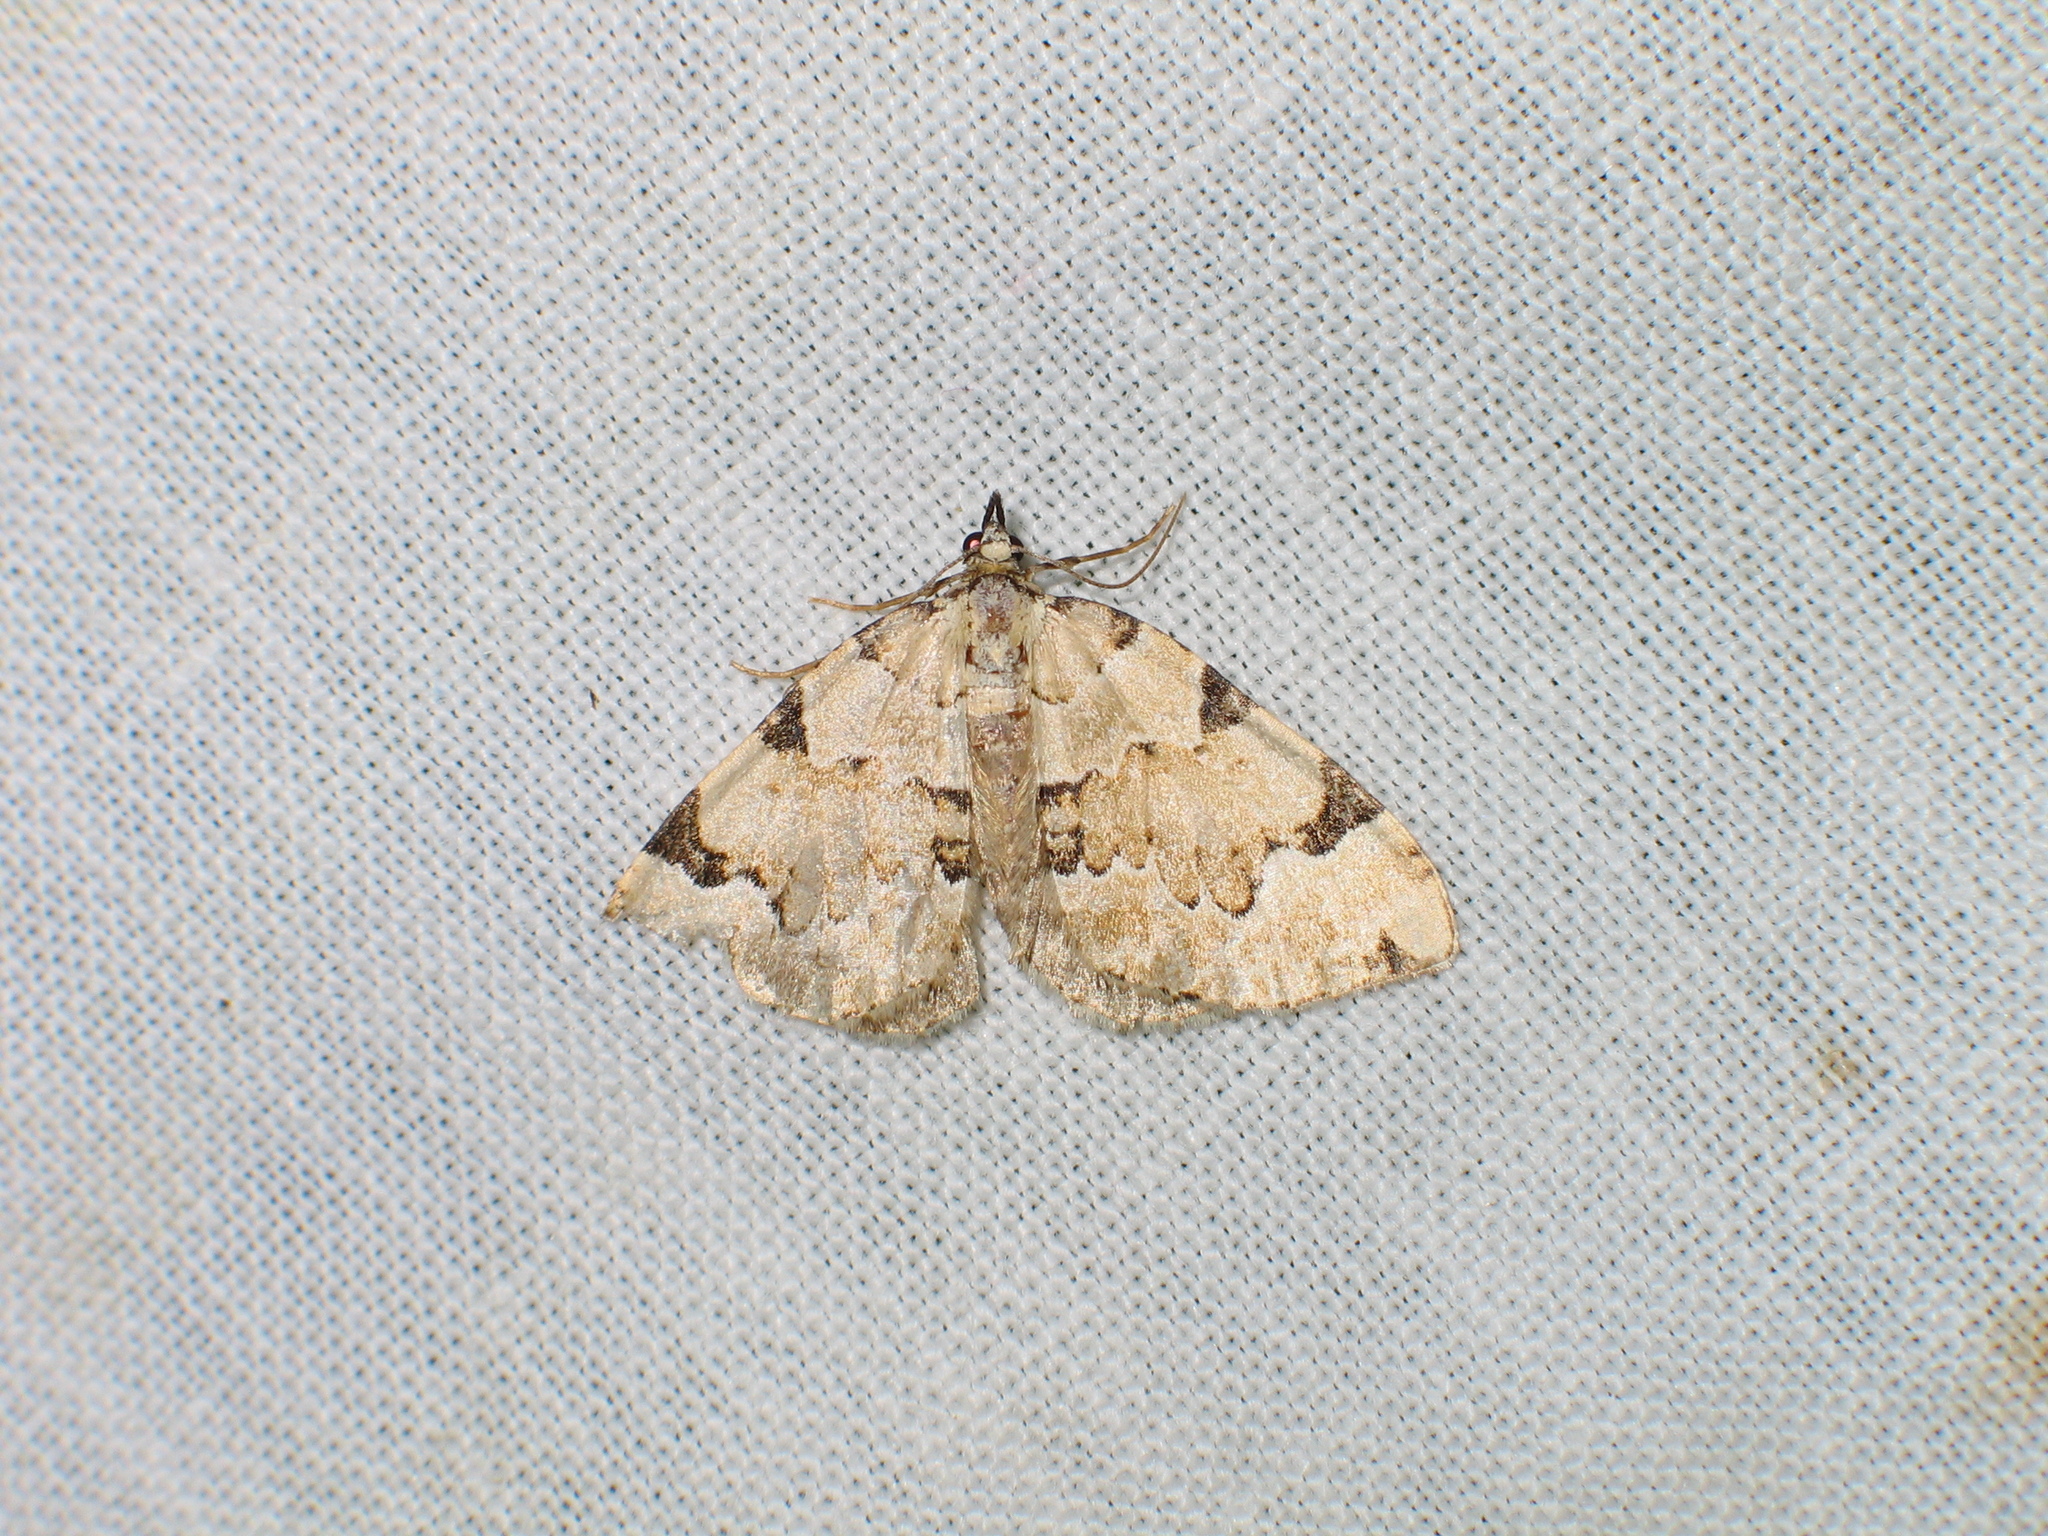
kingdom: Animalia
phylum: Arthropoda
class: Insecta
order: Lepidoptera
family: Geometridae
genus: Colostygia
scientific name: Colostygia pectinataria
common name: Green carpet
